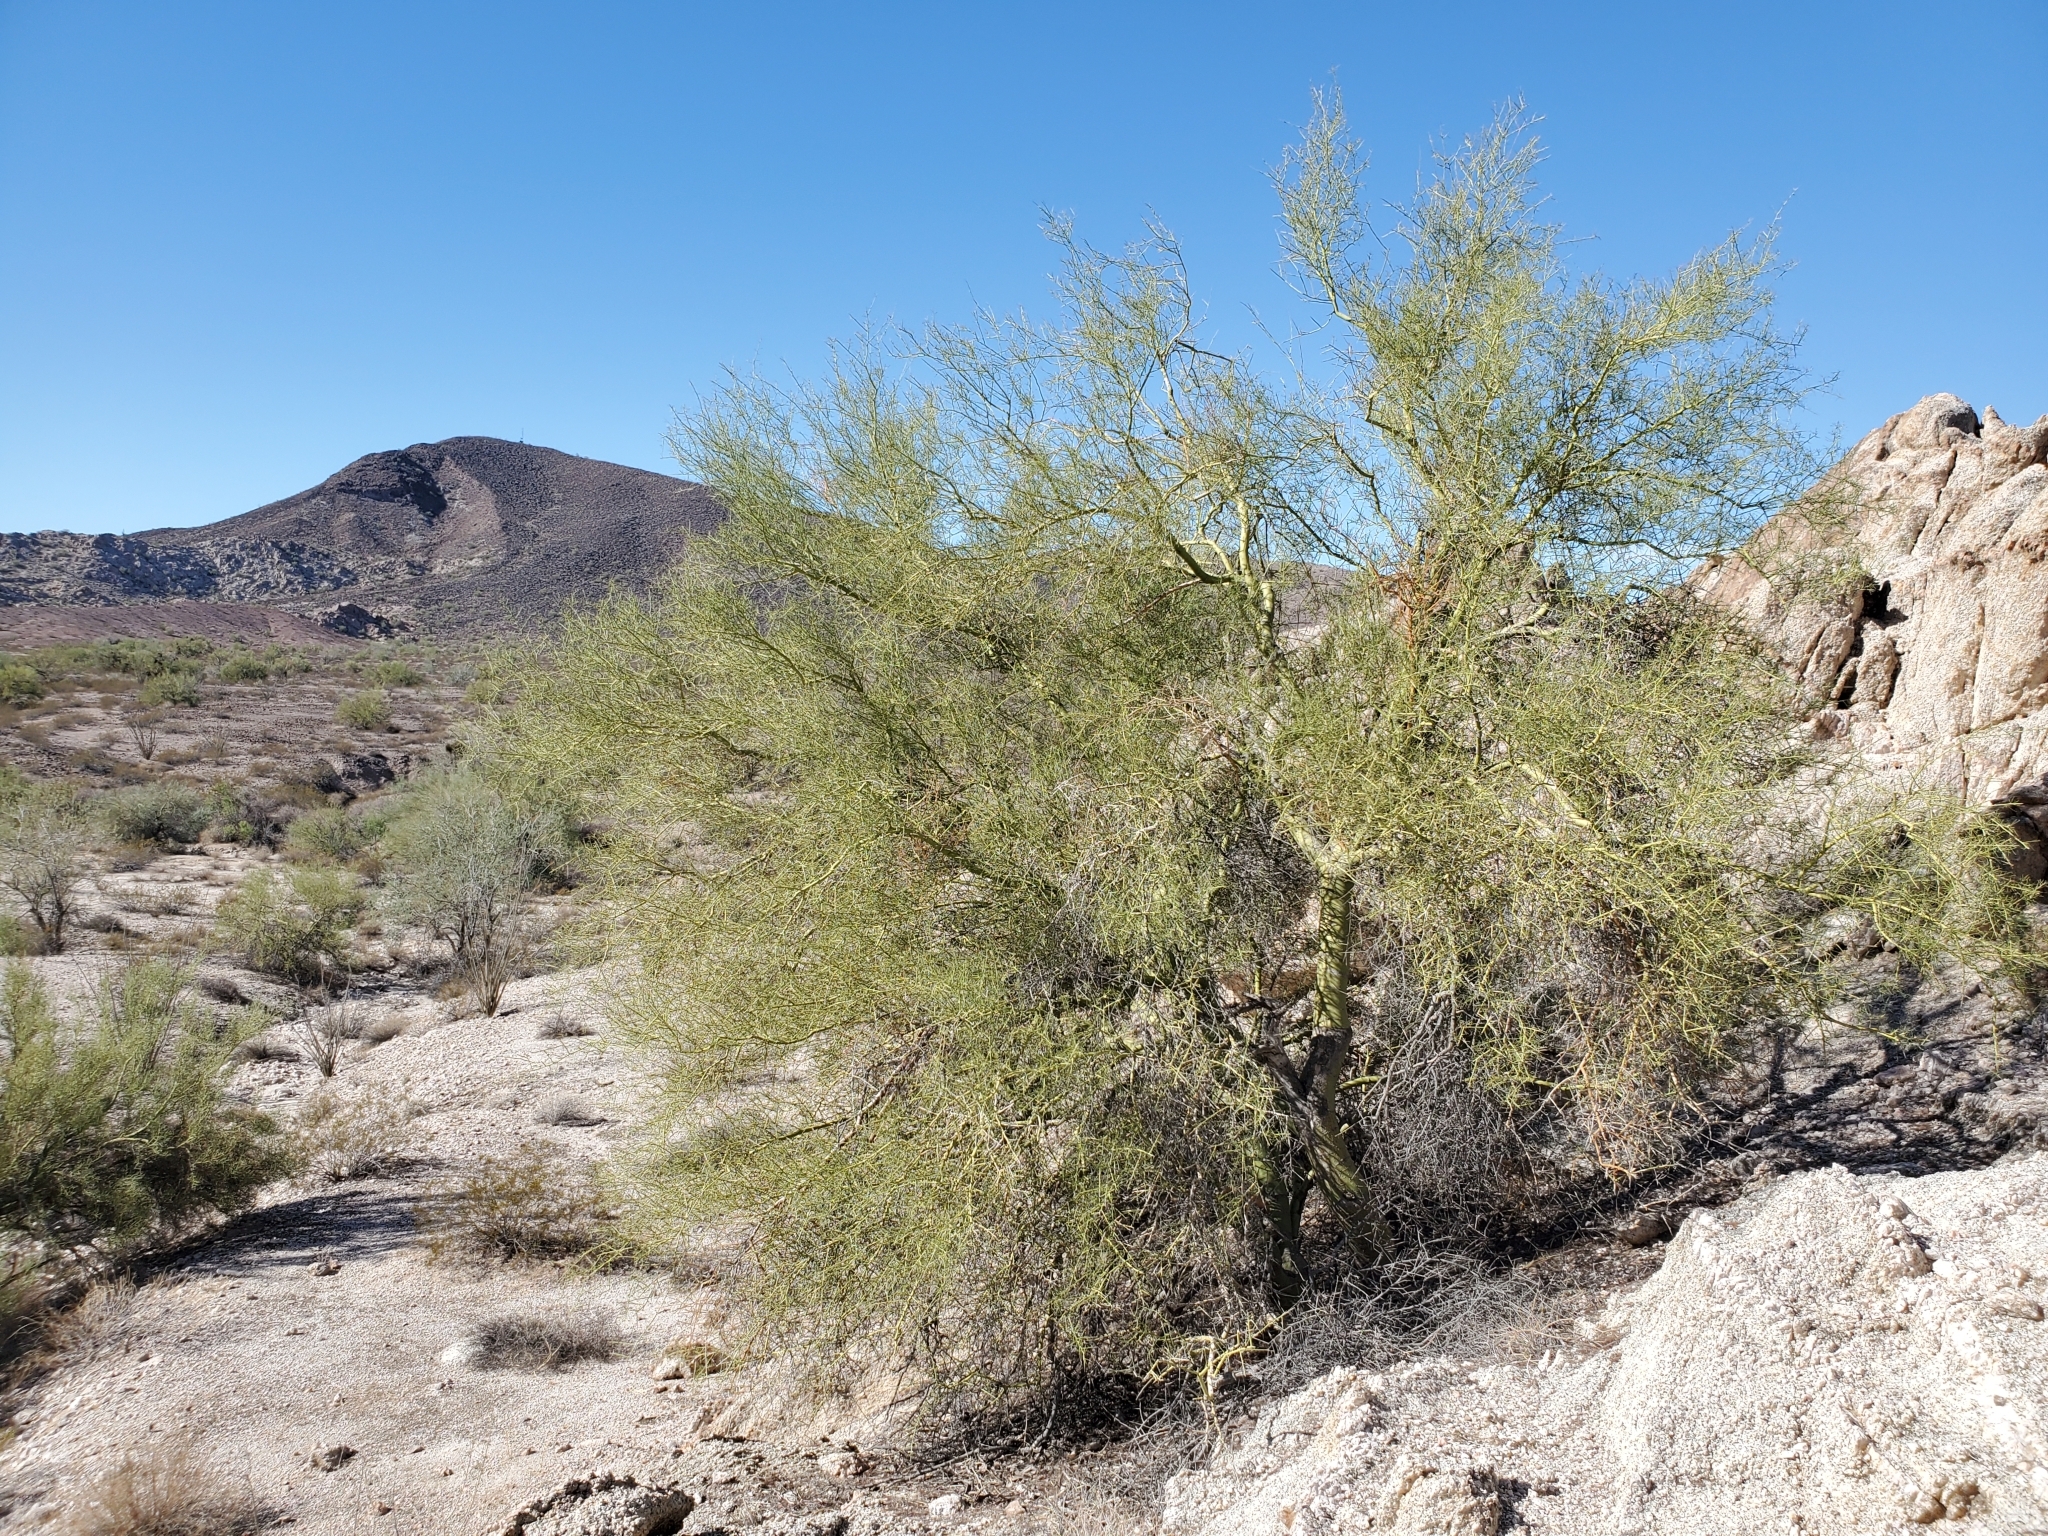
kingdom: Plantae
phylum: Tracheophyta
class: Magnoliopsida
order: Fabales
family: Fabaceae
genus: Parkinsonia
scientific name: Parkinsonia microphylla
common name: Yellow paloverde
